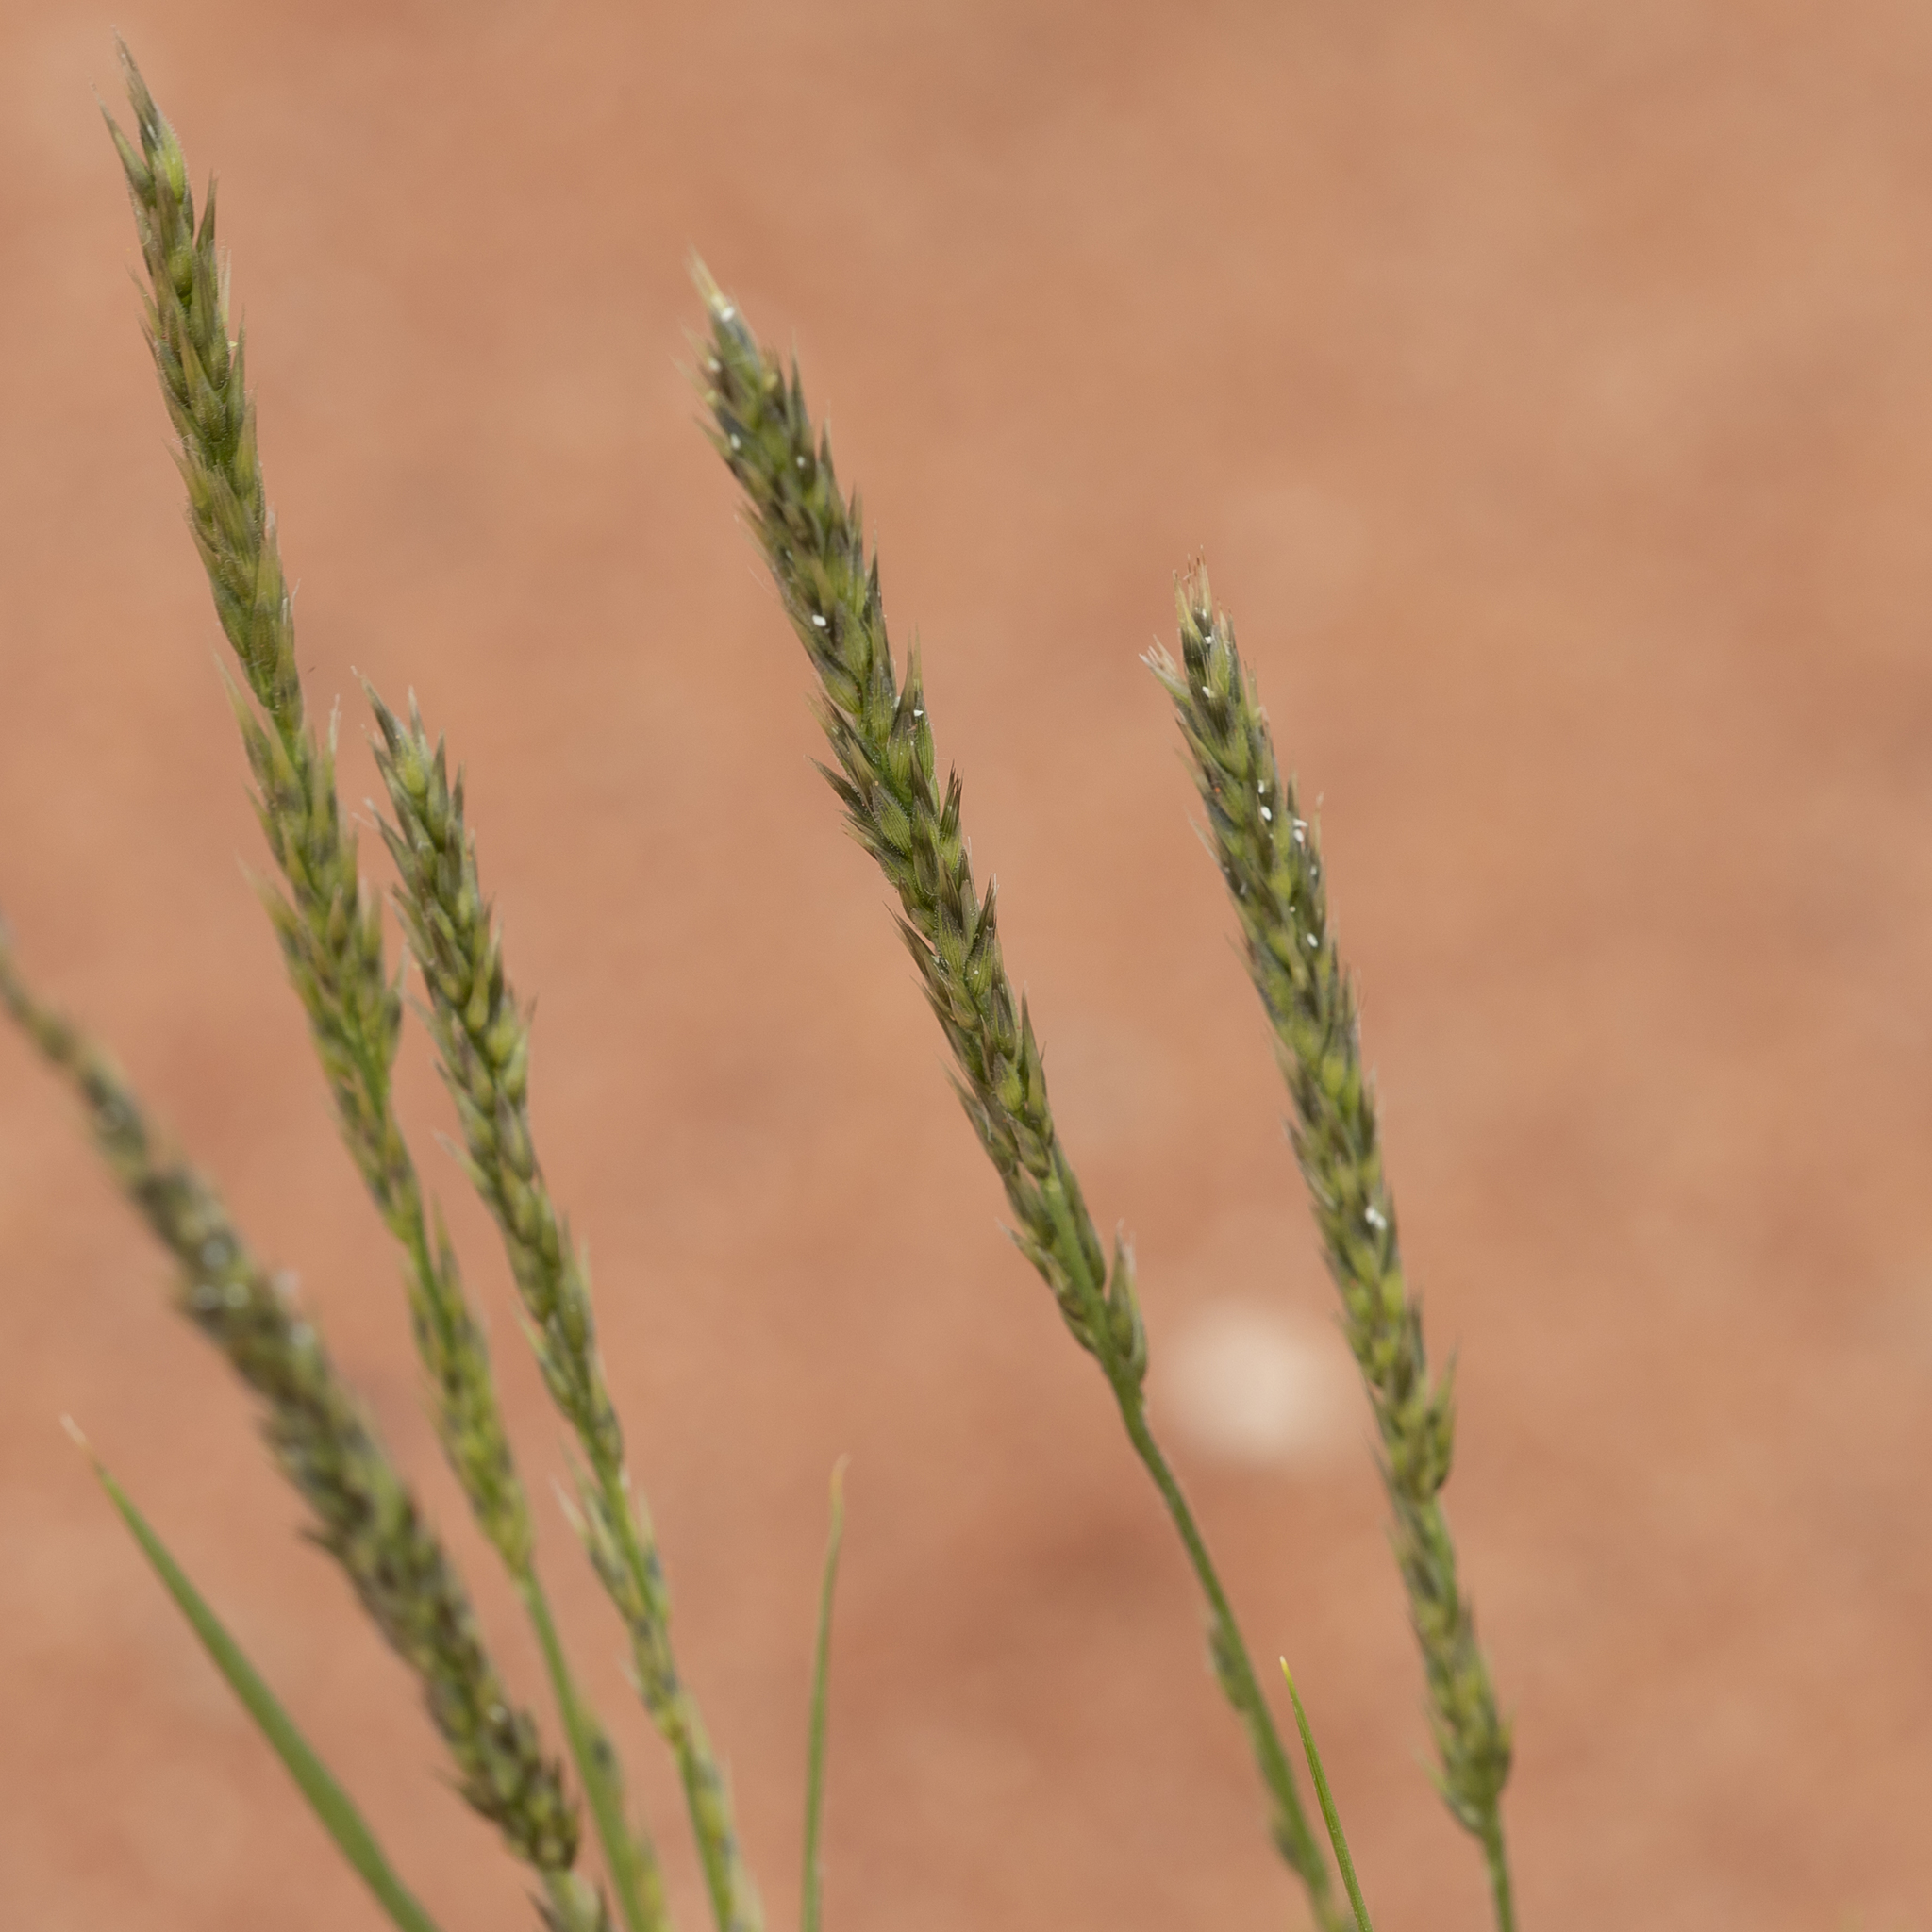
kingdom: Plantae
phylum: Tracheophyta
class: Liliopsida
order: Poales
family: Poaceae
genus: Enneapogon
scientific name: Enneapogon cylindricus
